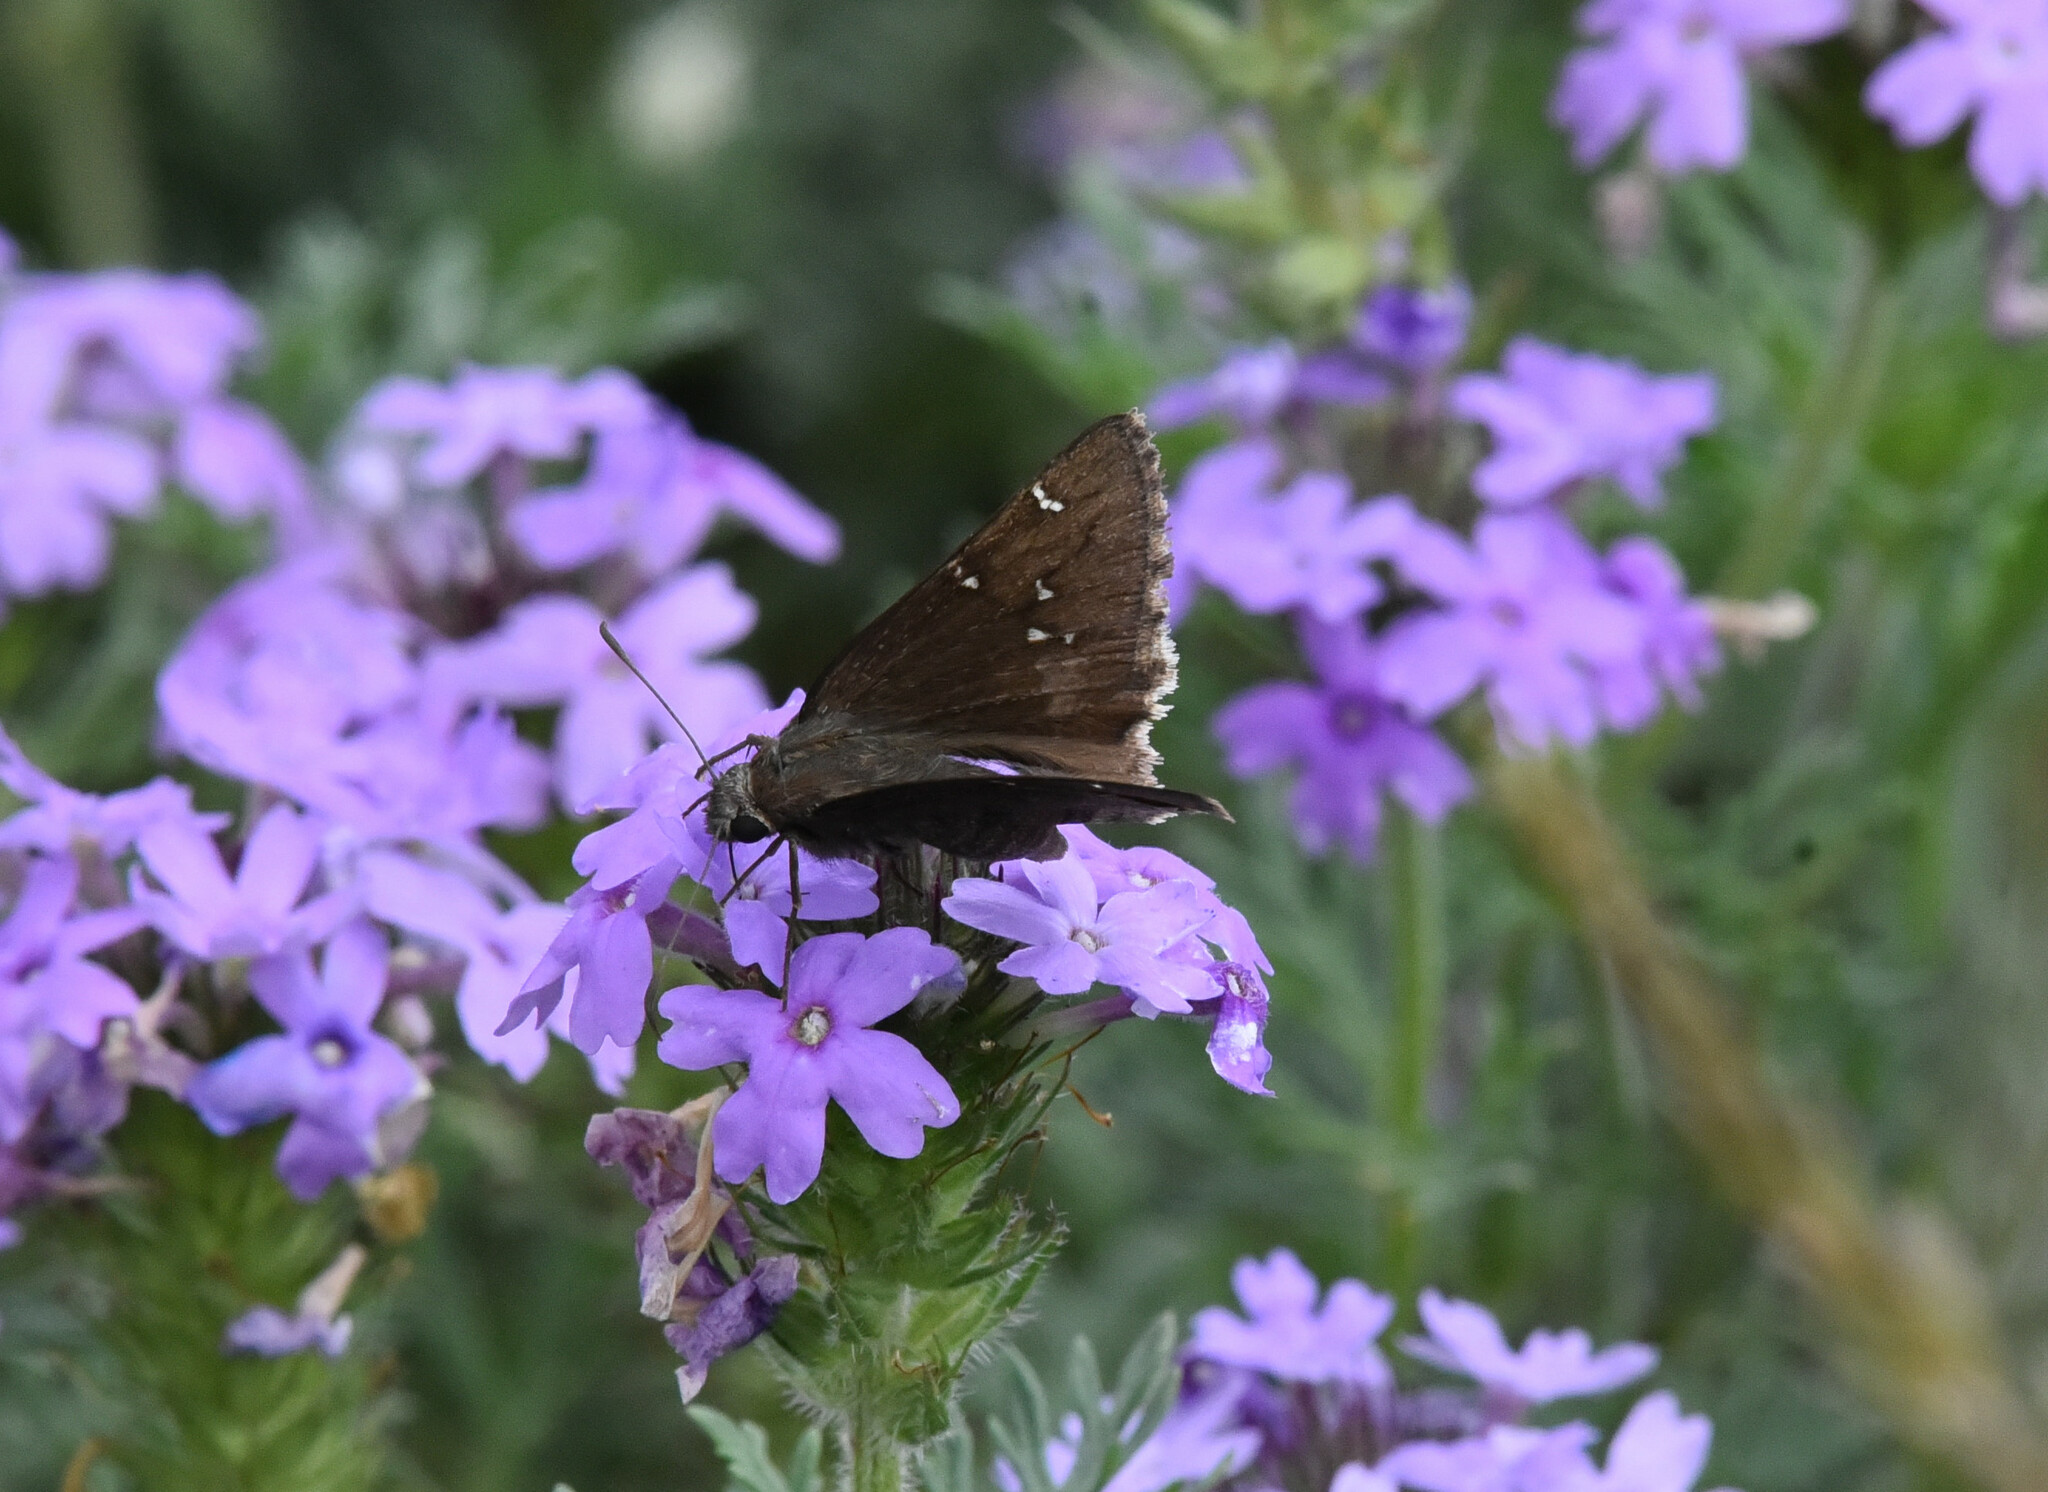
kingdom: Animalia
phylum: Arthropoda
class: Insecta
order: Lepidoptera
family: Hesperiidae
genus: Thorybes
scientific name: Thorybes pylades
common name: Northern cloudywing
